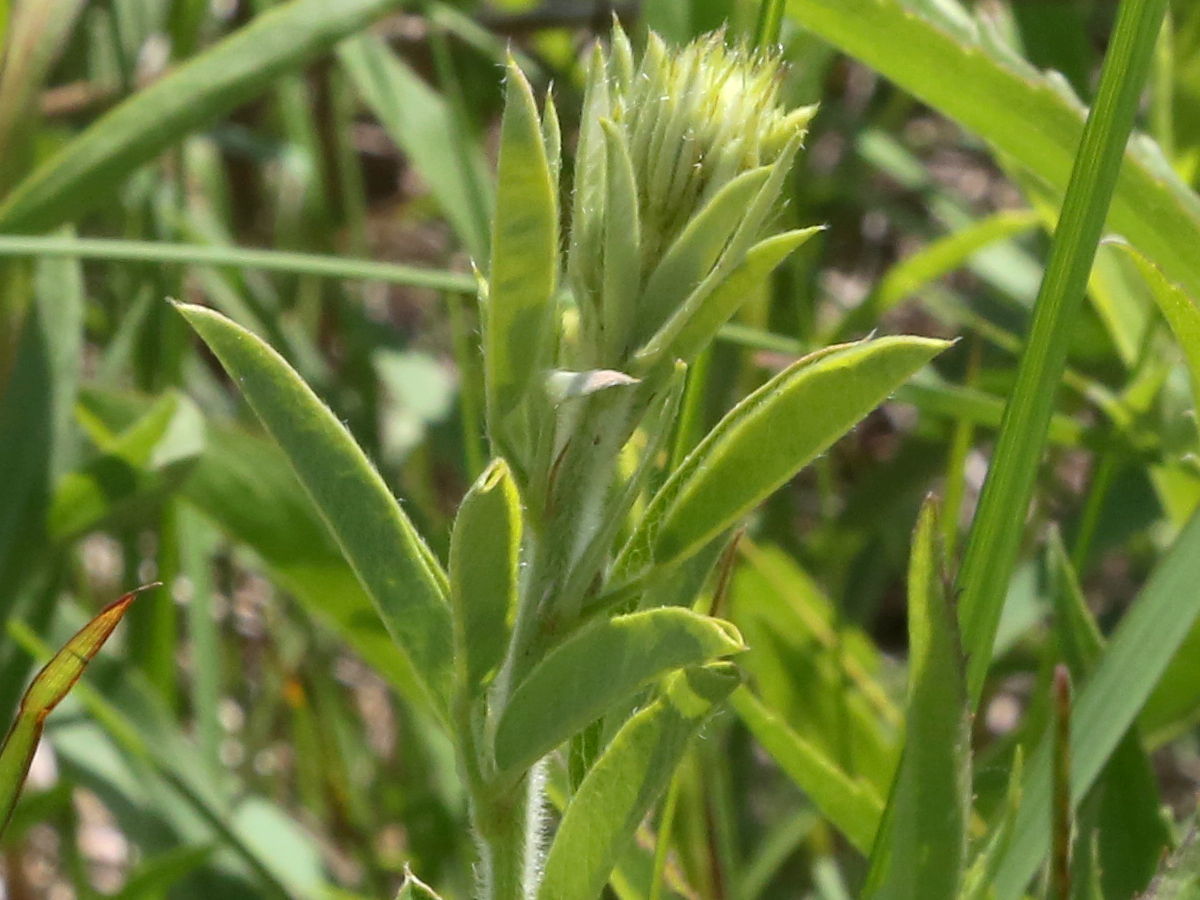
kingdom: Plantae
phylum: Tracheophyta
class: Magnoliopsida
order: Fabales
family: Fabaceae
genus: Lespedeza
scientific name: Lespedeza capitata
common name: Dusty clover
